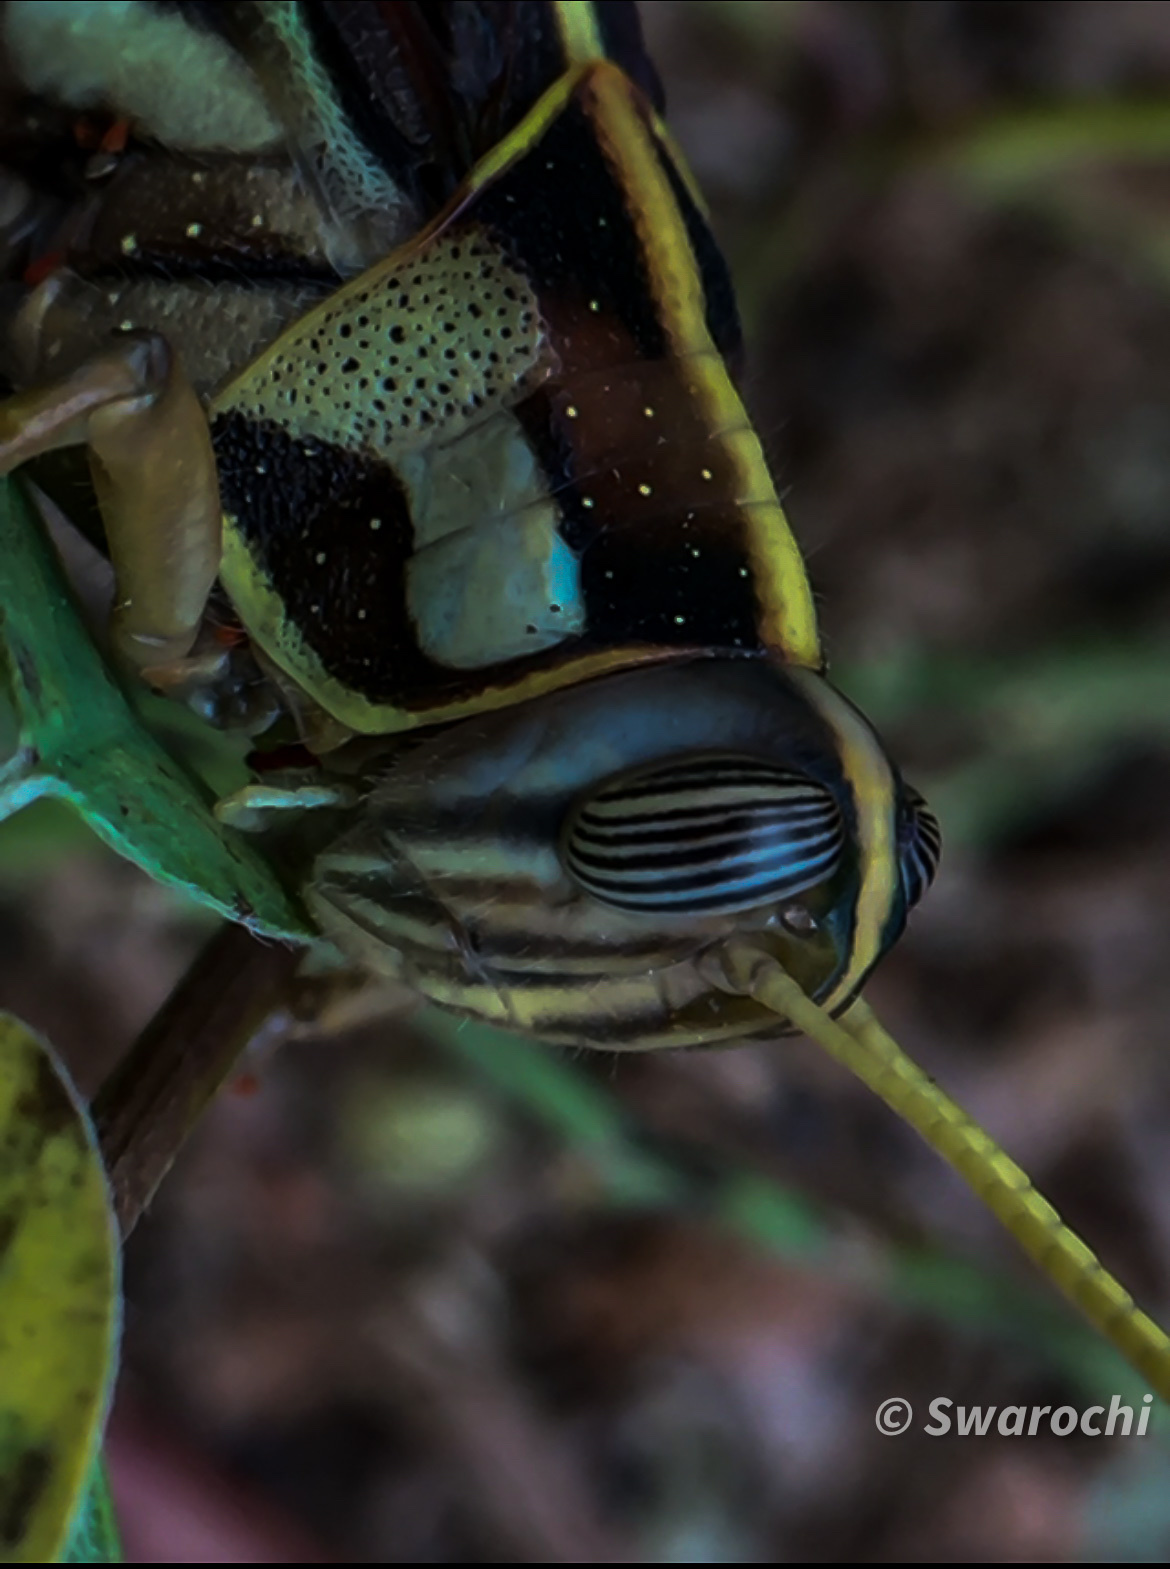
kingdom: Animalia
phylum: Arthropoda
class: Insecta
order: Orthoptera
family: Acrididae
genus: Cyrtacanthacris
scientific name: Cyrtacanthacris tatarica
